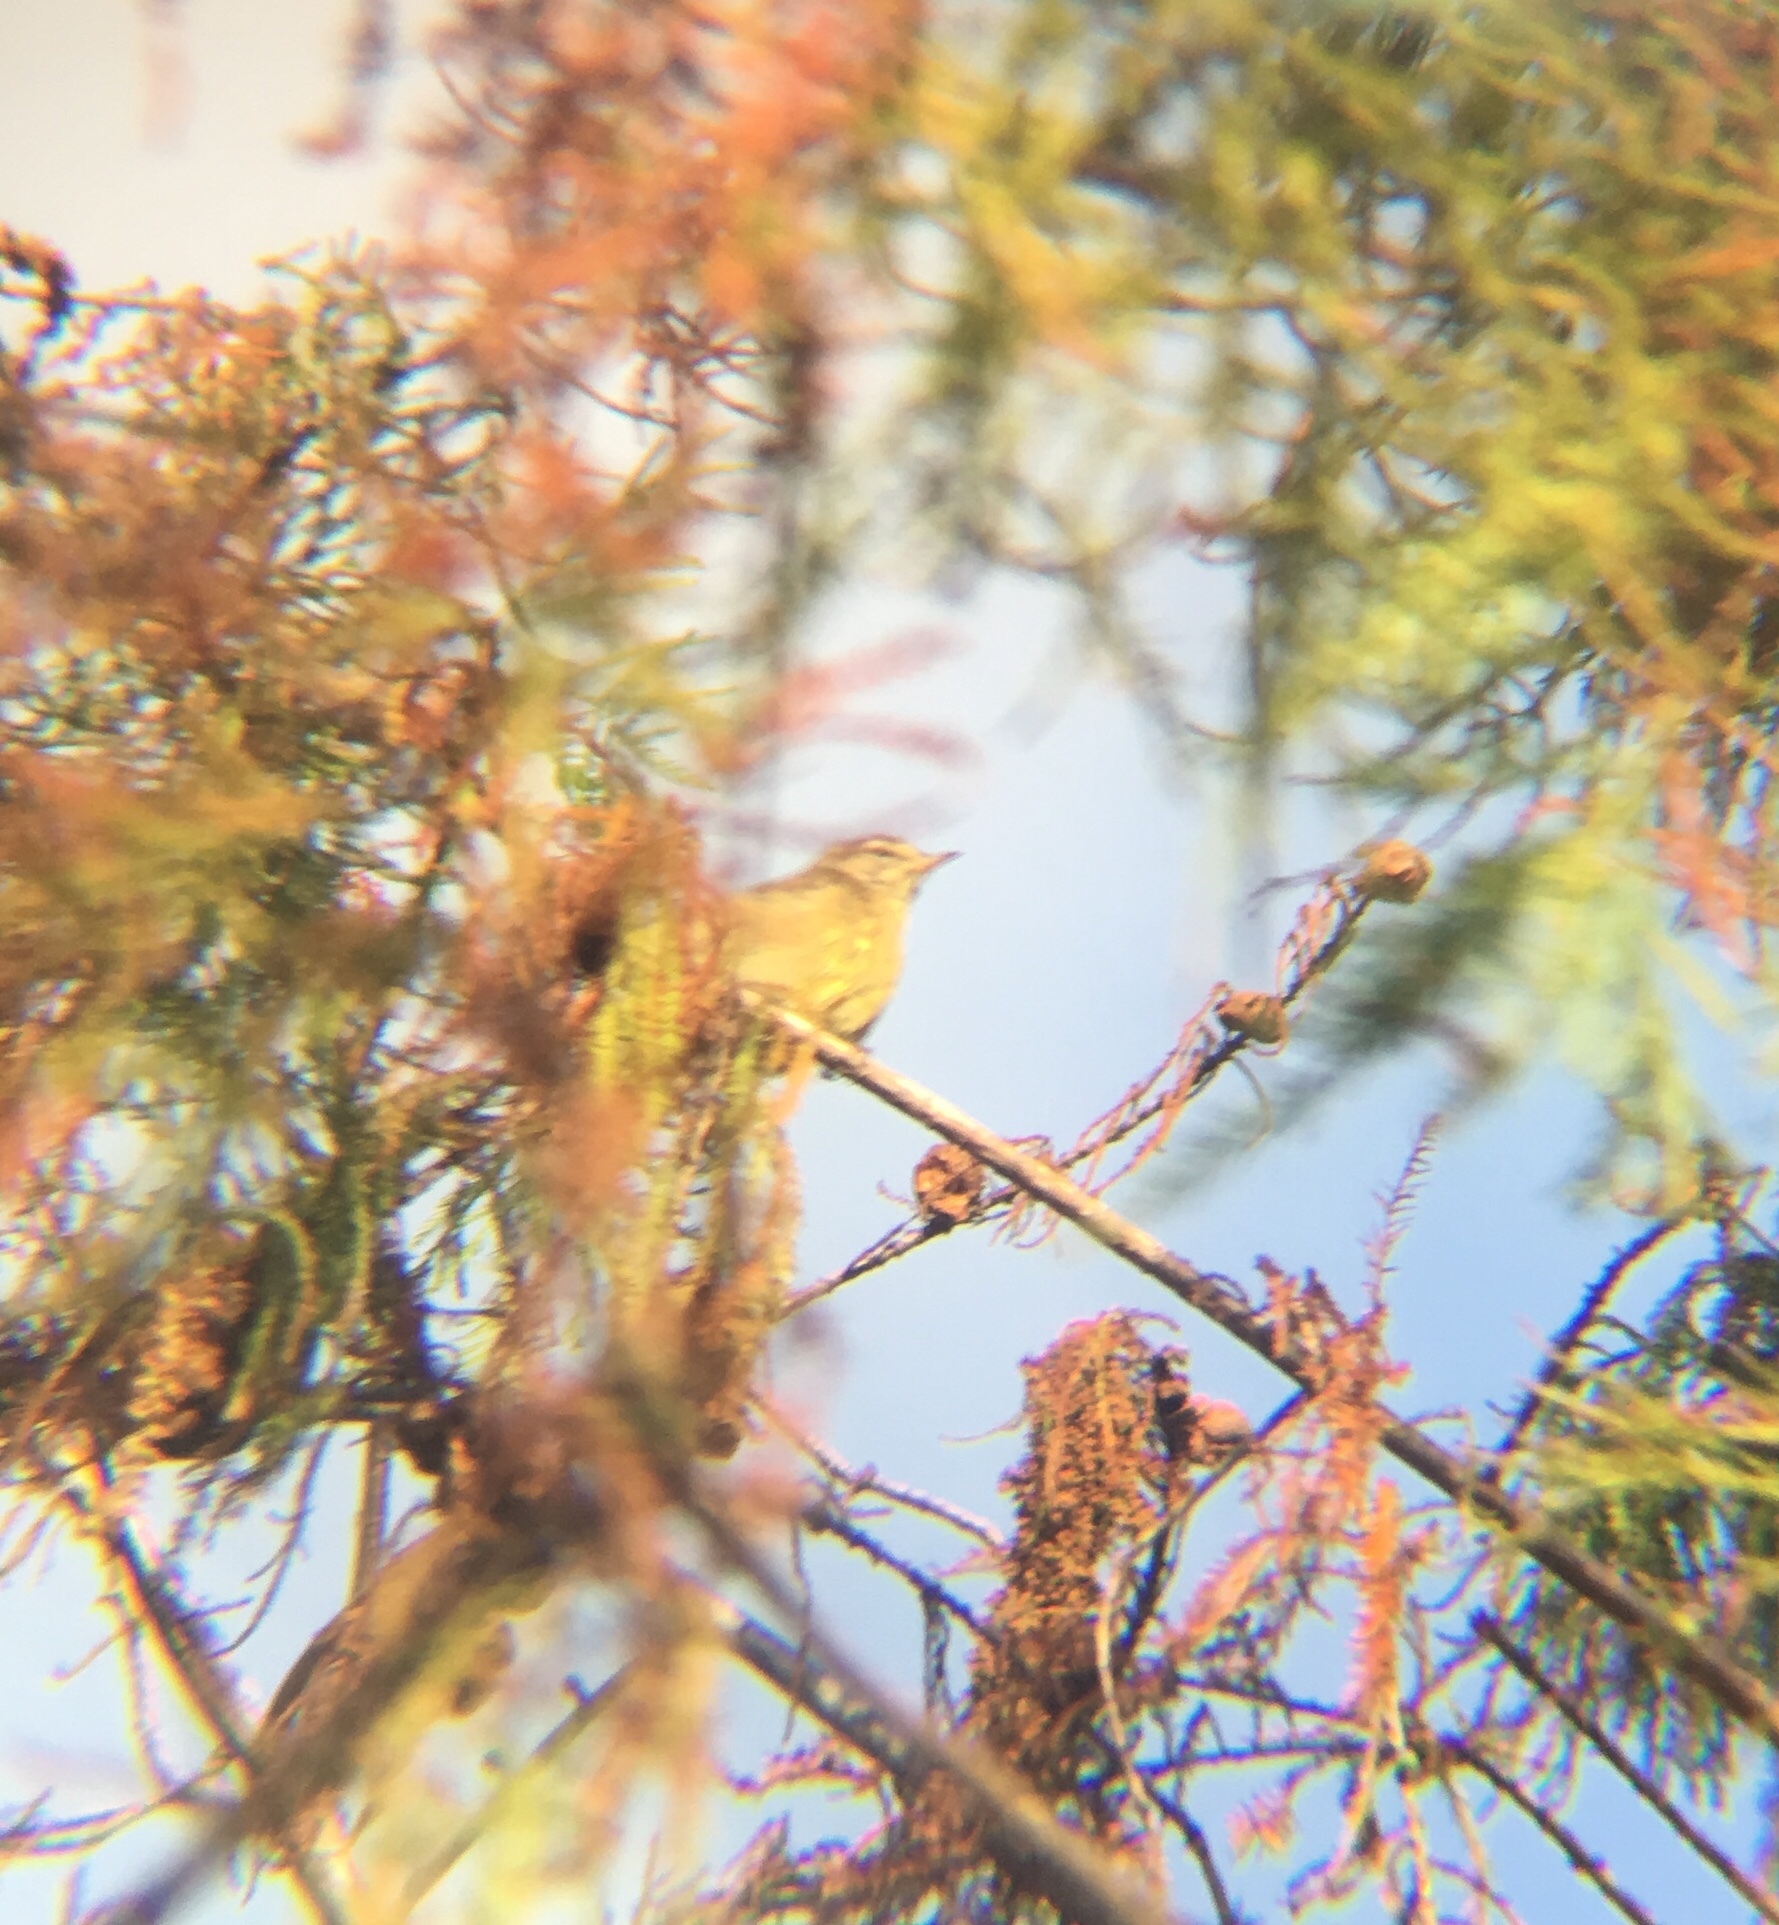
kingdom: Animalia
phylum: Chordata
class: Aves
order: Passeriformes
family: Parulidae
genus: Setophaga
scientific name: Setophaga palmarum
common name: Palm warbler
